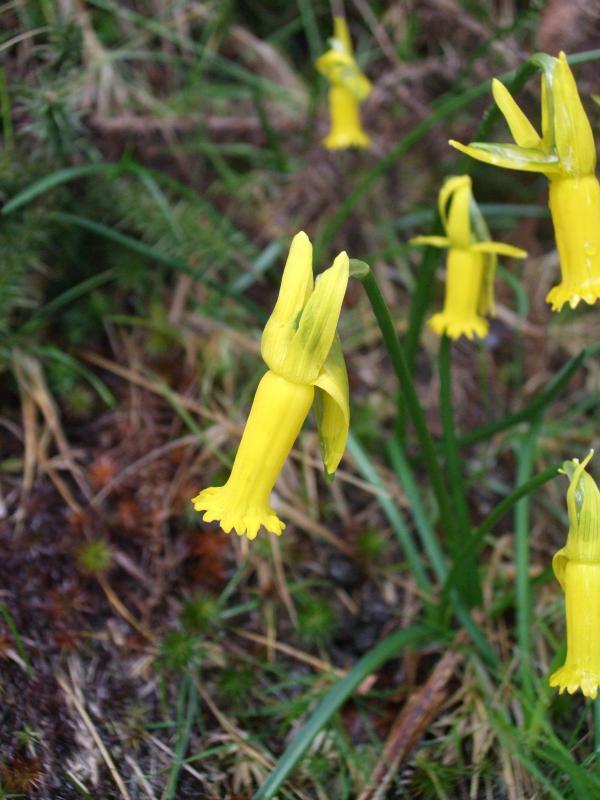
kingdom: Plantae
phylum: Tracheophyta
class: Liliopsida
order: Asparagales
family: Amaryllidaceae
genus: Narcissus
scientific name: Narcissus cyclamineus
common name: Cyclamen-flowered daffodil
